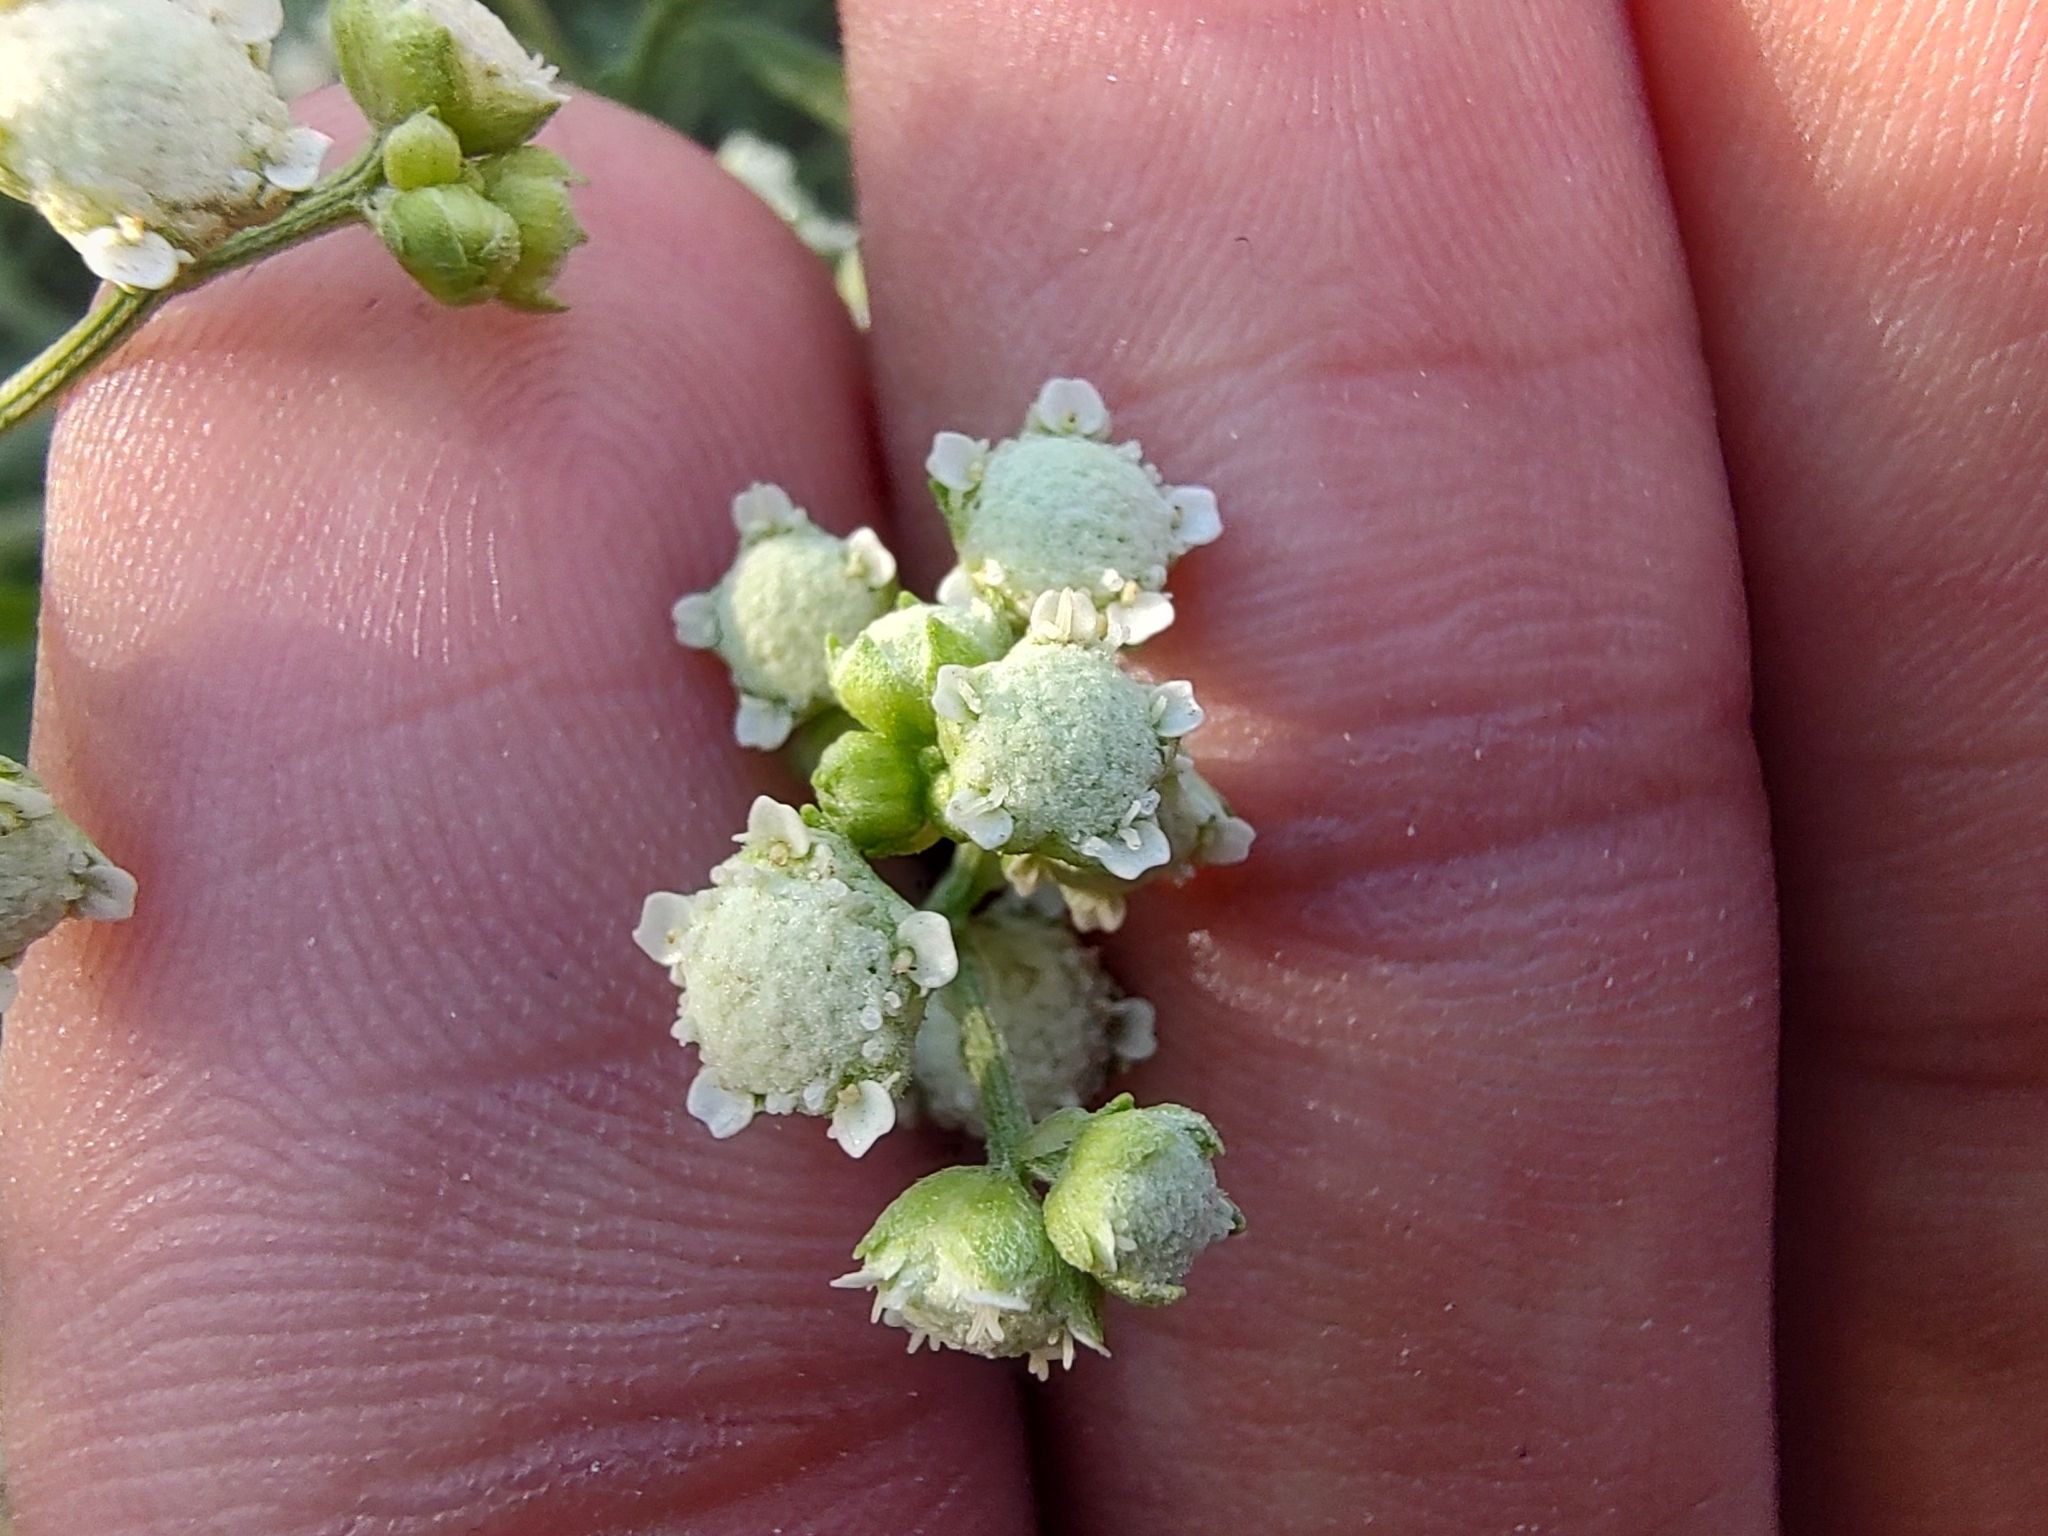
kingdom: Plantae
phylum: Tracheophyta
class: Magnoliopsida
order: Asterales
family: Asteraceae
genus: Parthenium
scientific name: Parthenium hysterophorus
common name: Santa maria feverfew
